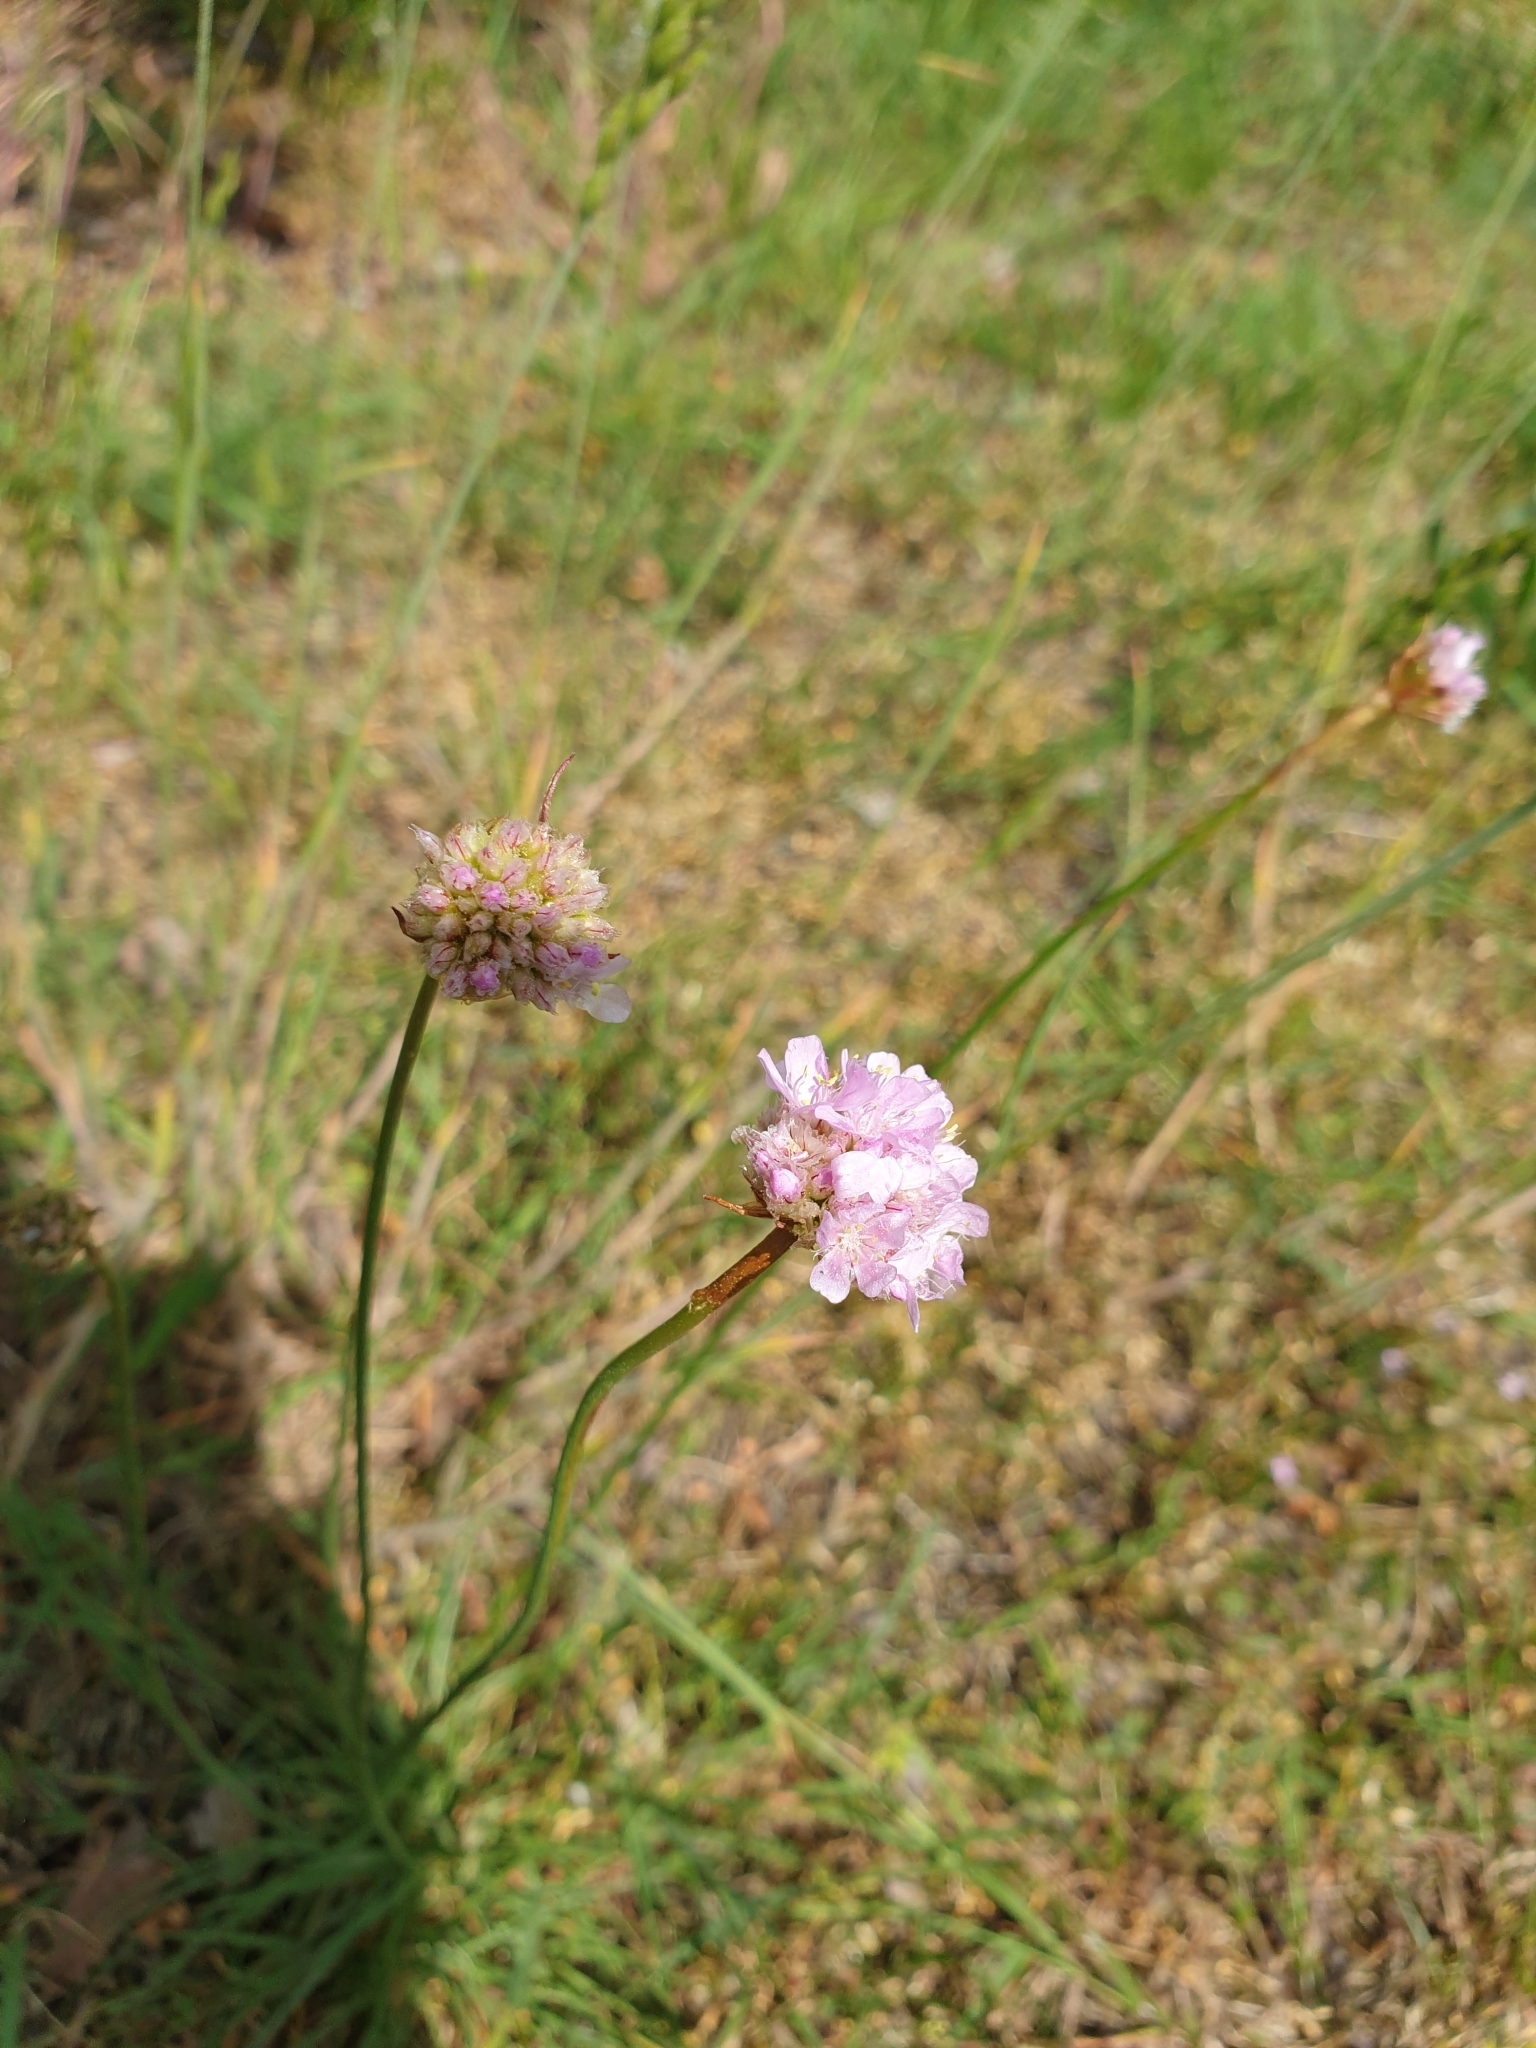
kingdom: Plantae
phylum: Tracheophyta
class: Magnoliopsida
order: Caryophyllales
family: Plumbaginaceae
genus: Armeria
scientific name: Armeria maritima
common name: Thrift
